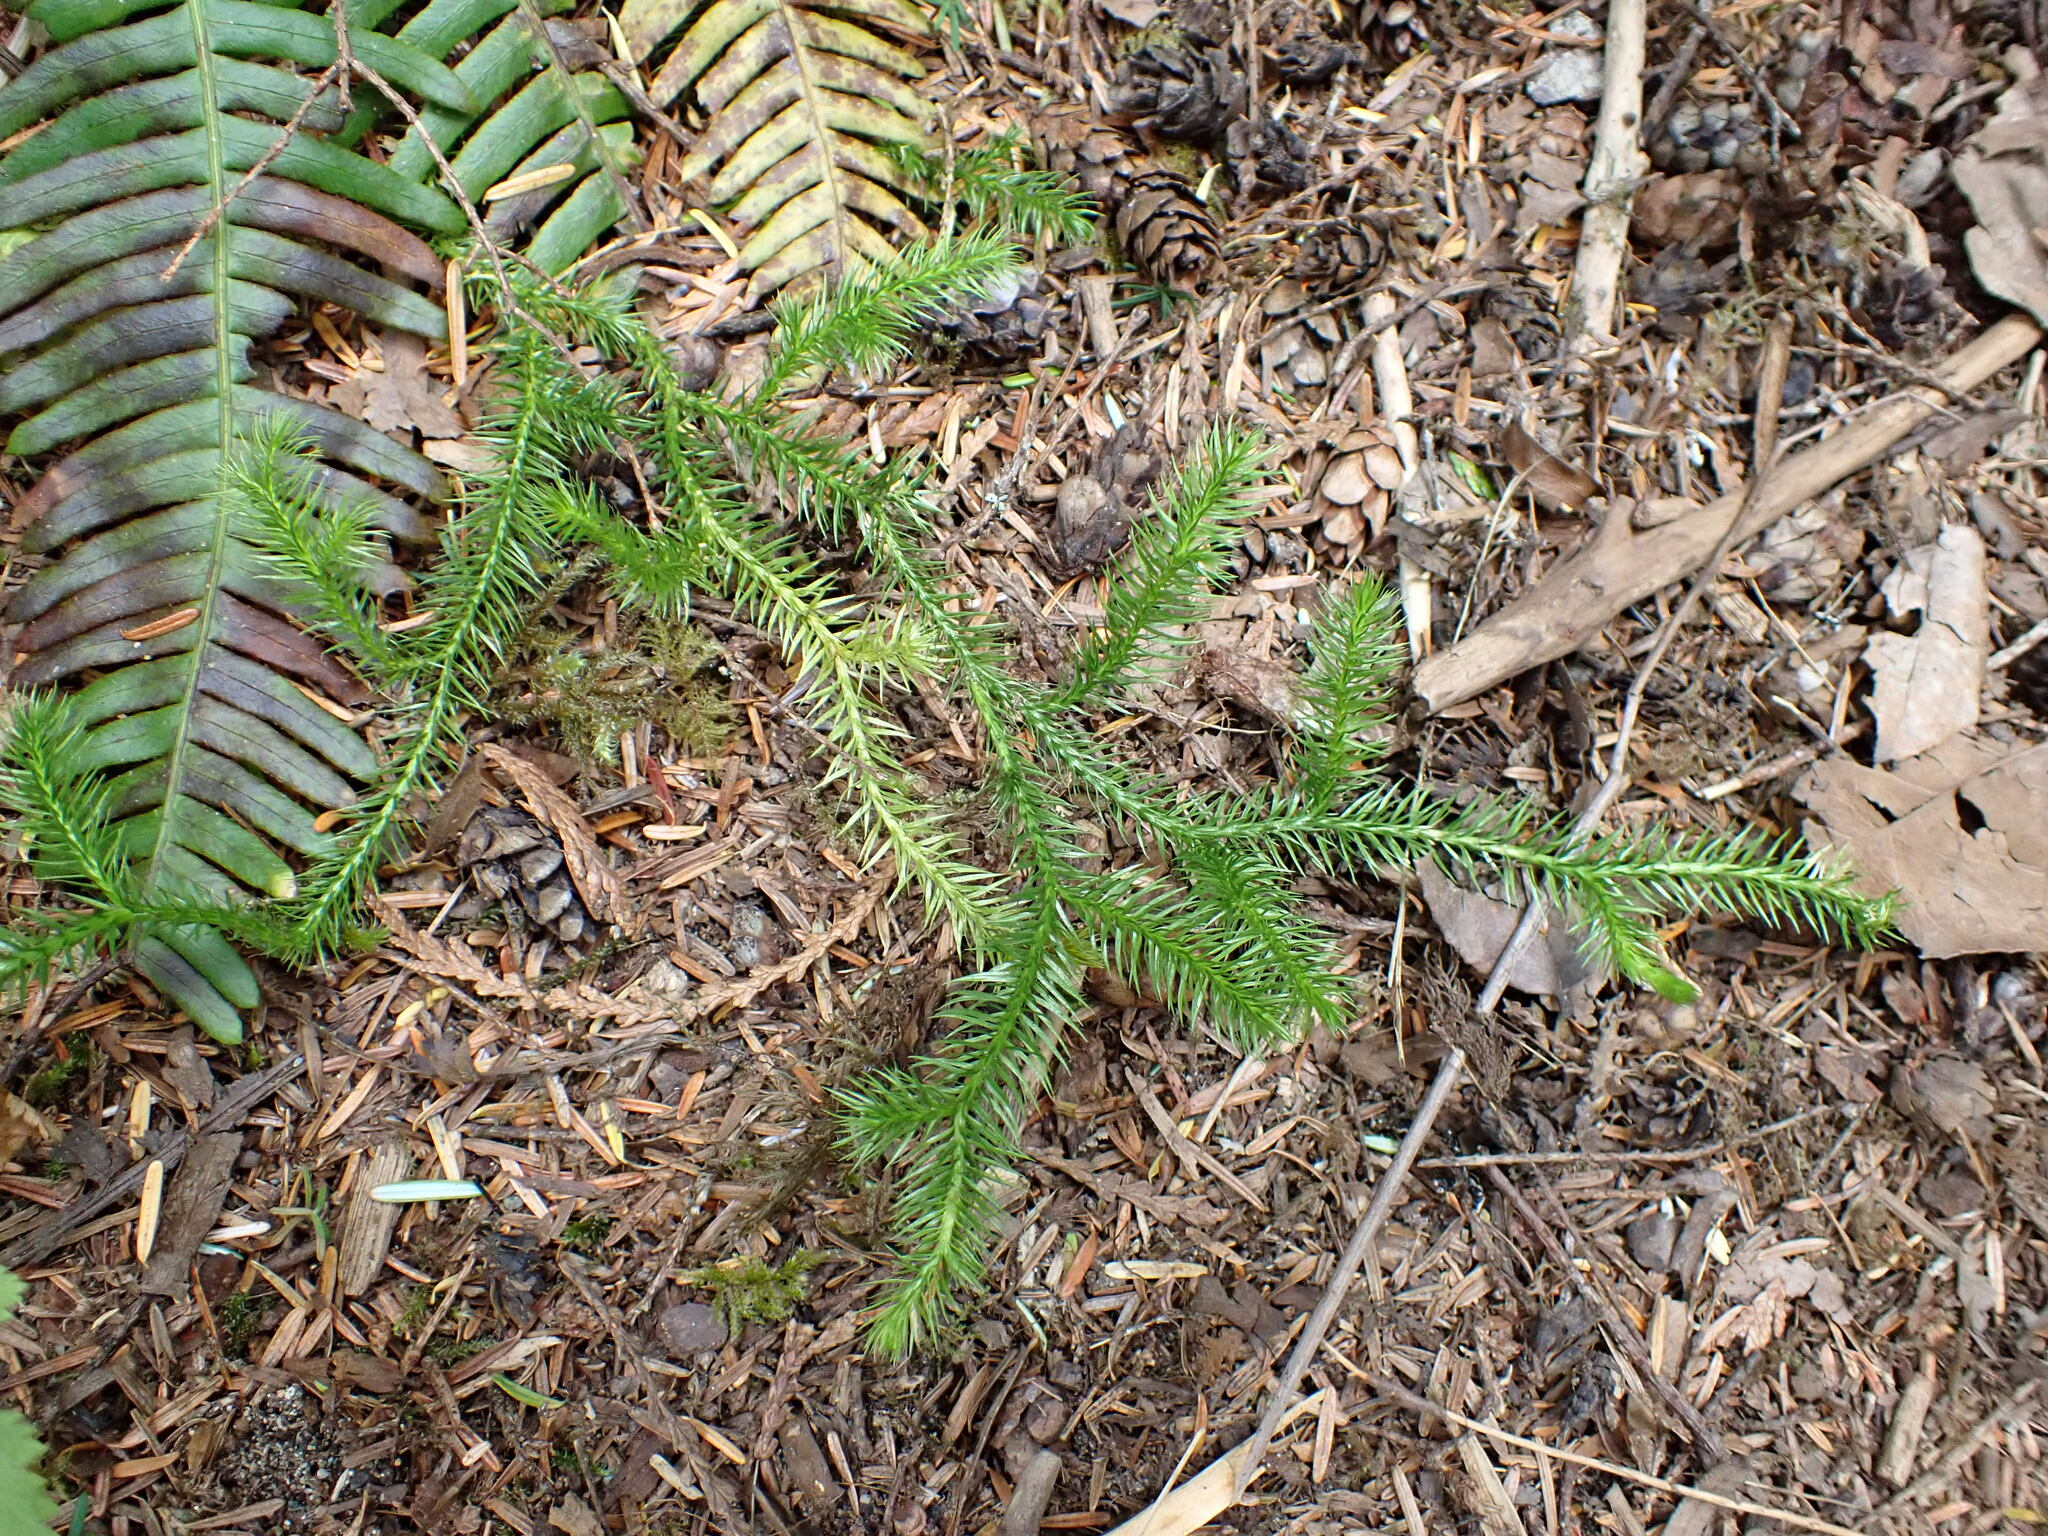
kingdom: Plantae
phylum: Tracheophyta
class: Lycopodiopsida
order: Lycopodiales
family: Lycopodiaceae
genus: Lycopodium
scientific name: Lycopodium clavatum
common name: Stag's-horn clubmoss
